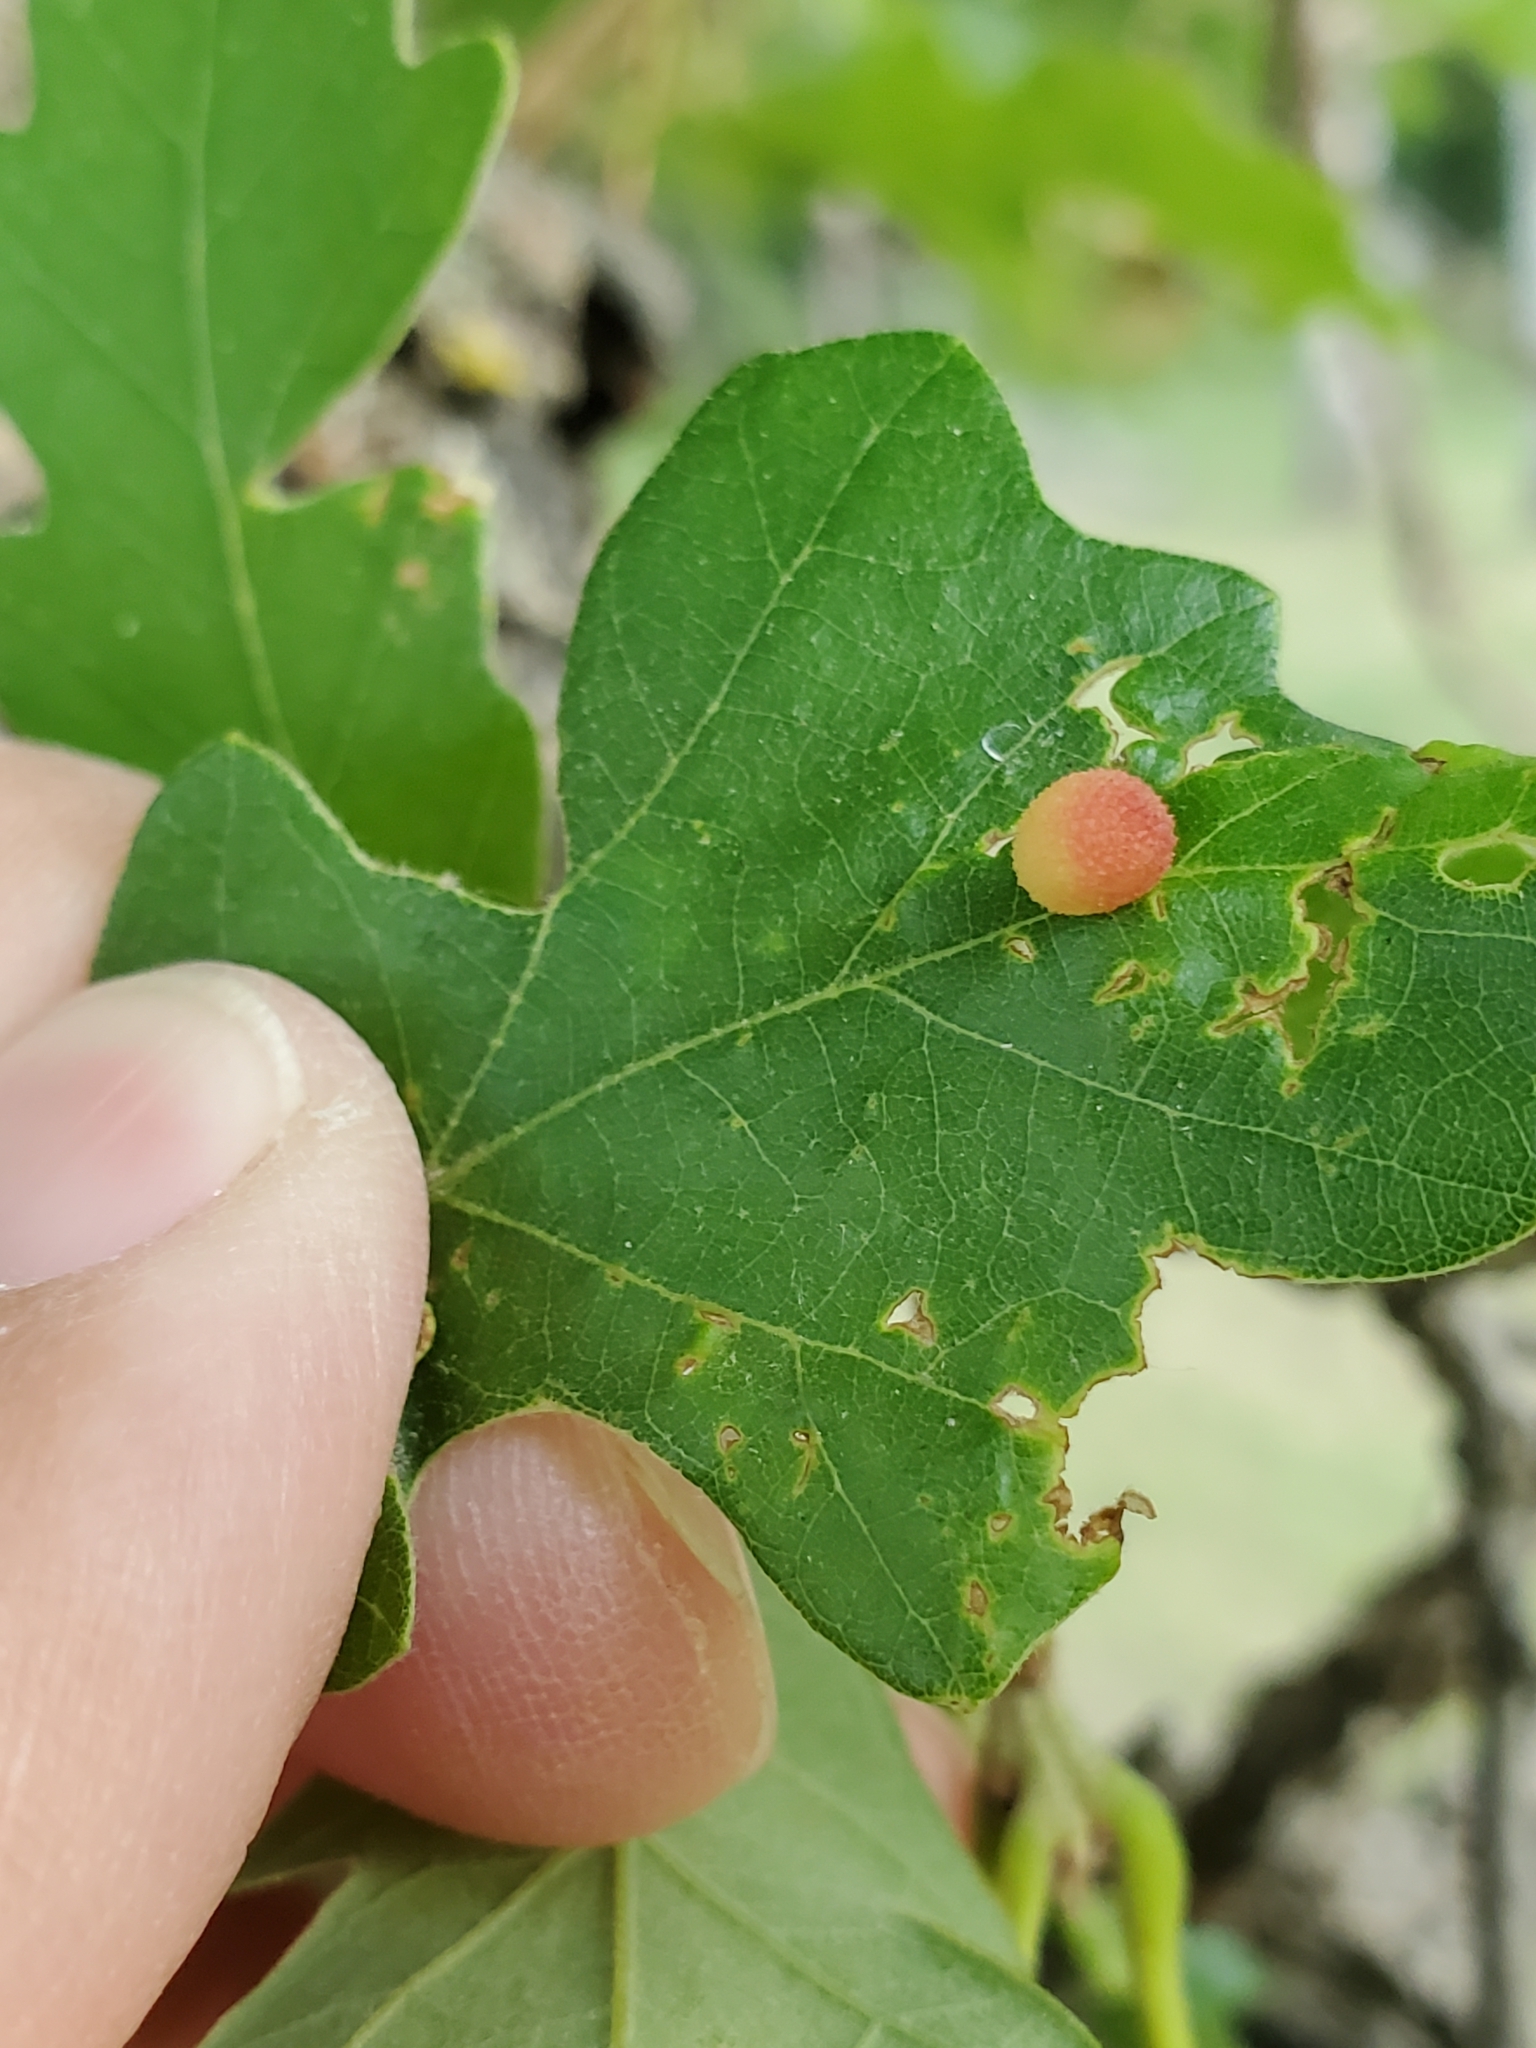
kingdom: Animalia
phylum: Arthropoda
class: Insecta
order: Hymenoptera
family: Cynipidae
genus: Acraspis
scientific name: Acraspis quercushirta
